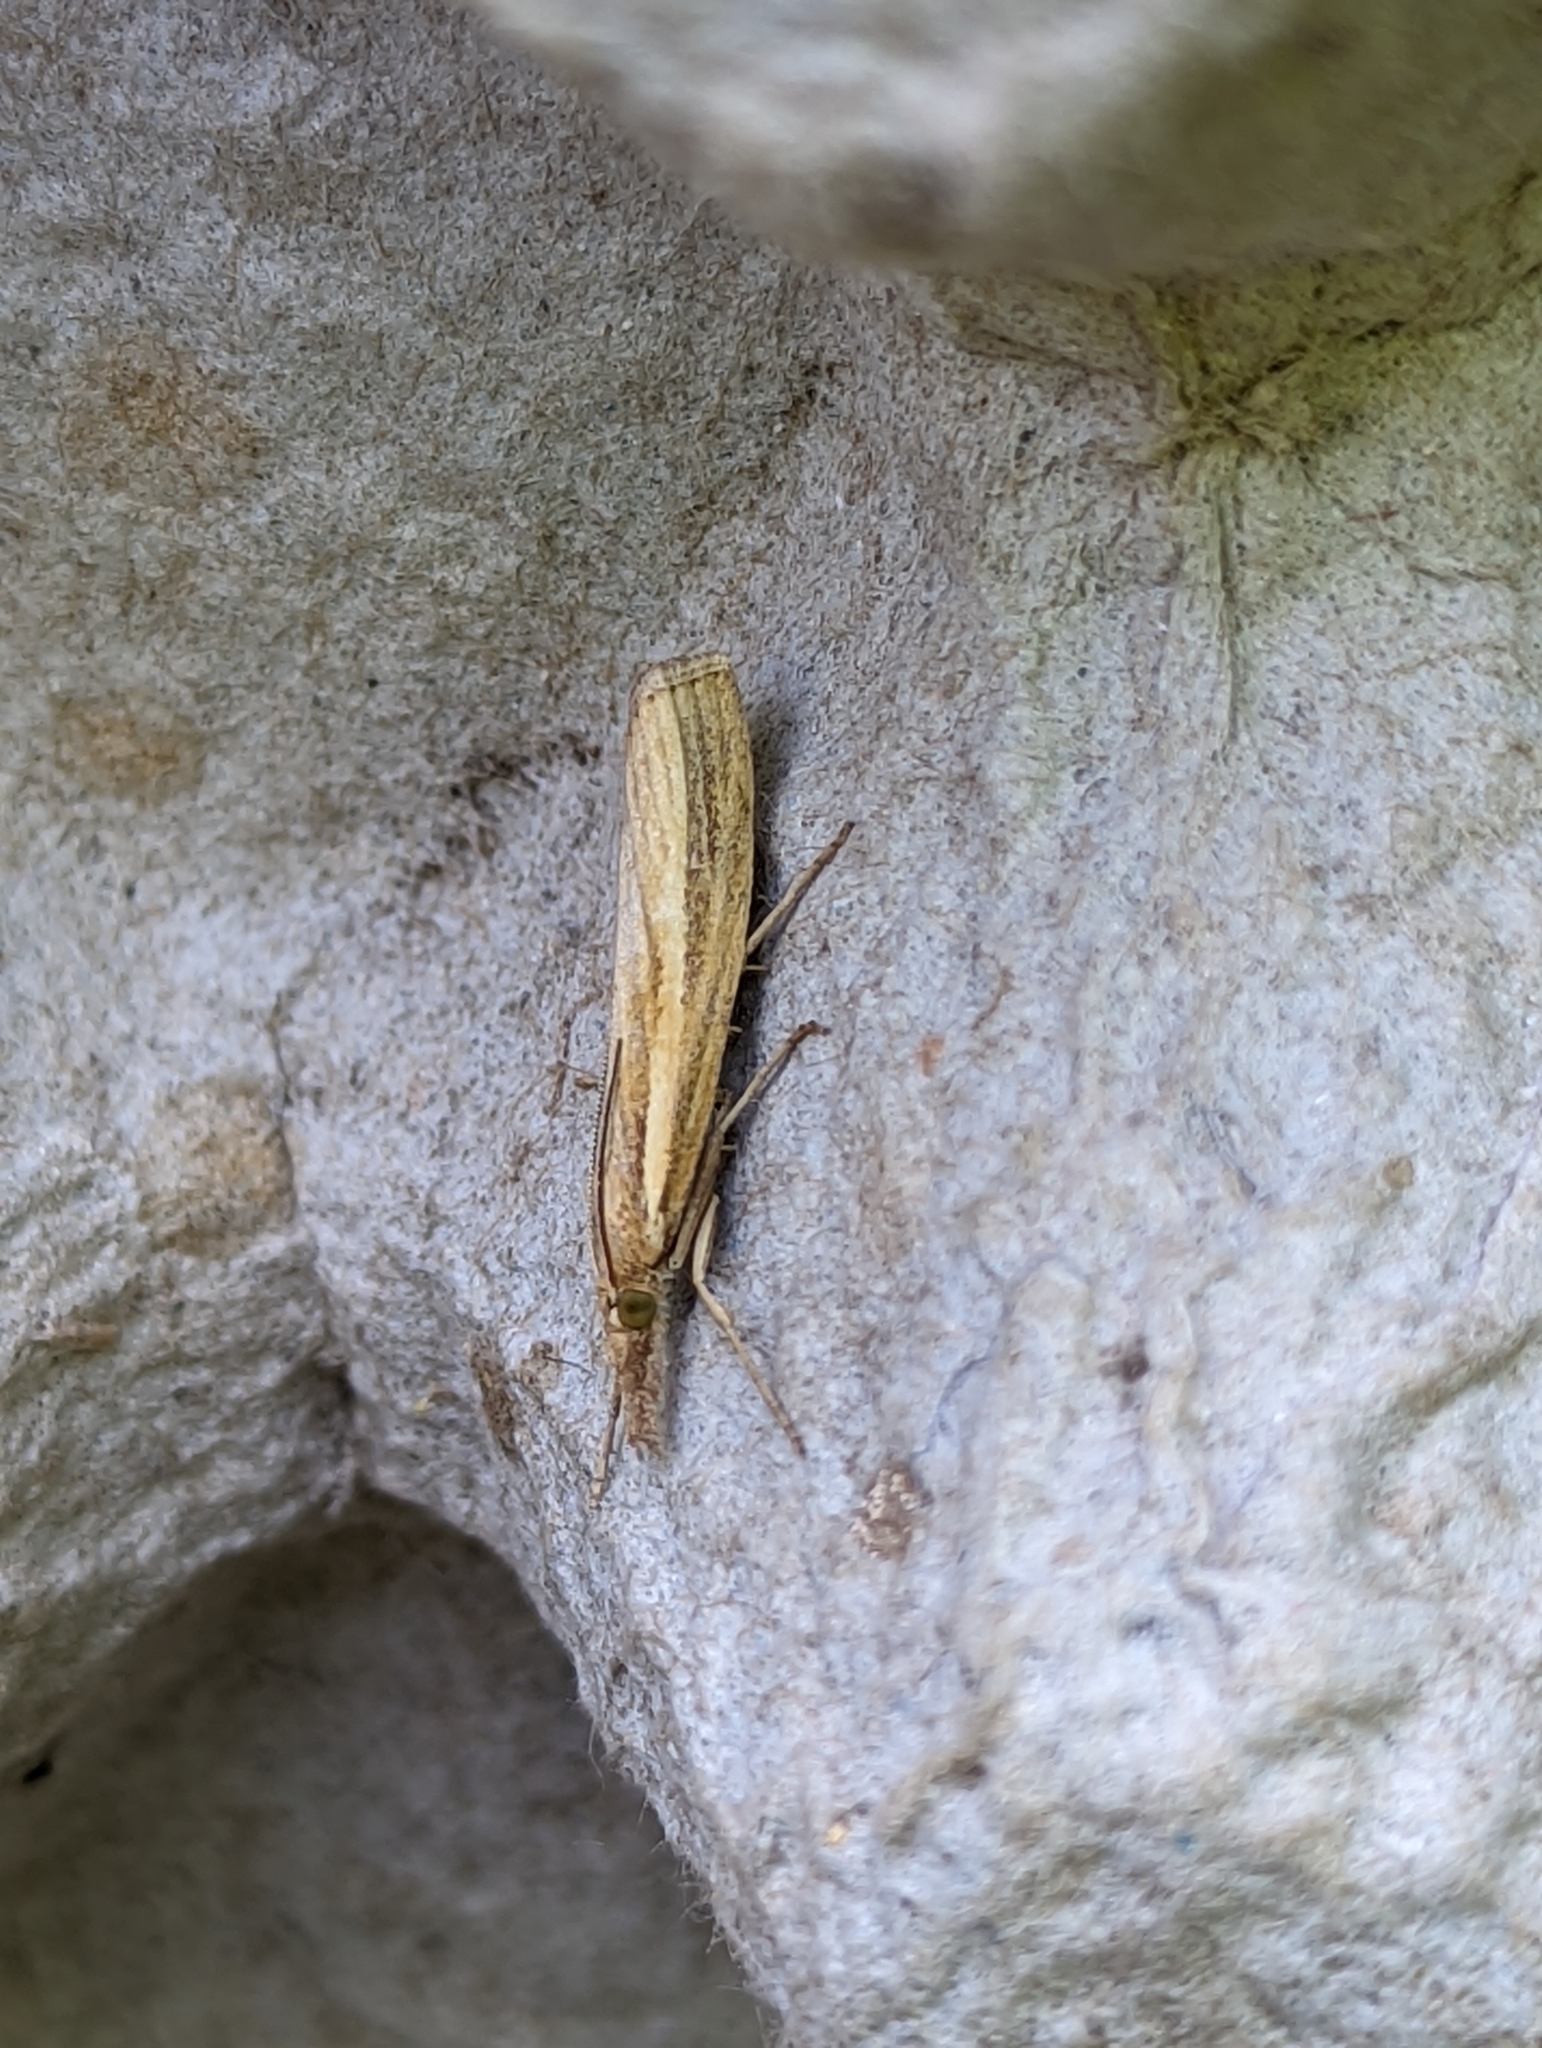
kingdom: Animalia
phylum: Arthropoda
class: Insecta
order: Lepidoptera
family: Crambidae
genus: Agriphila
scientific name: Agriphila tristellus
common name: Common grass-veneer
